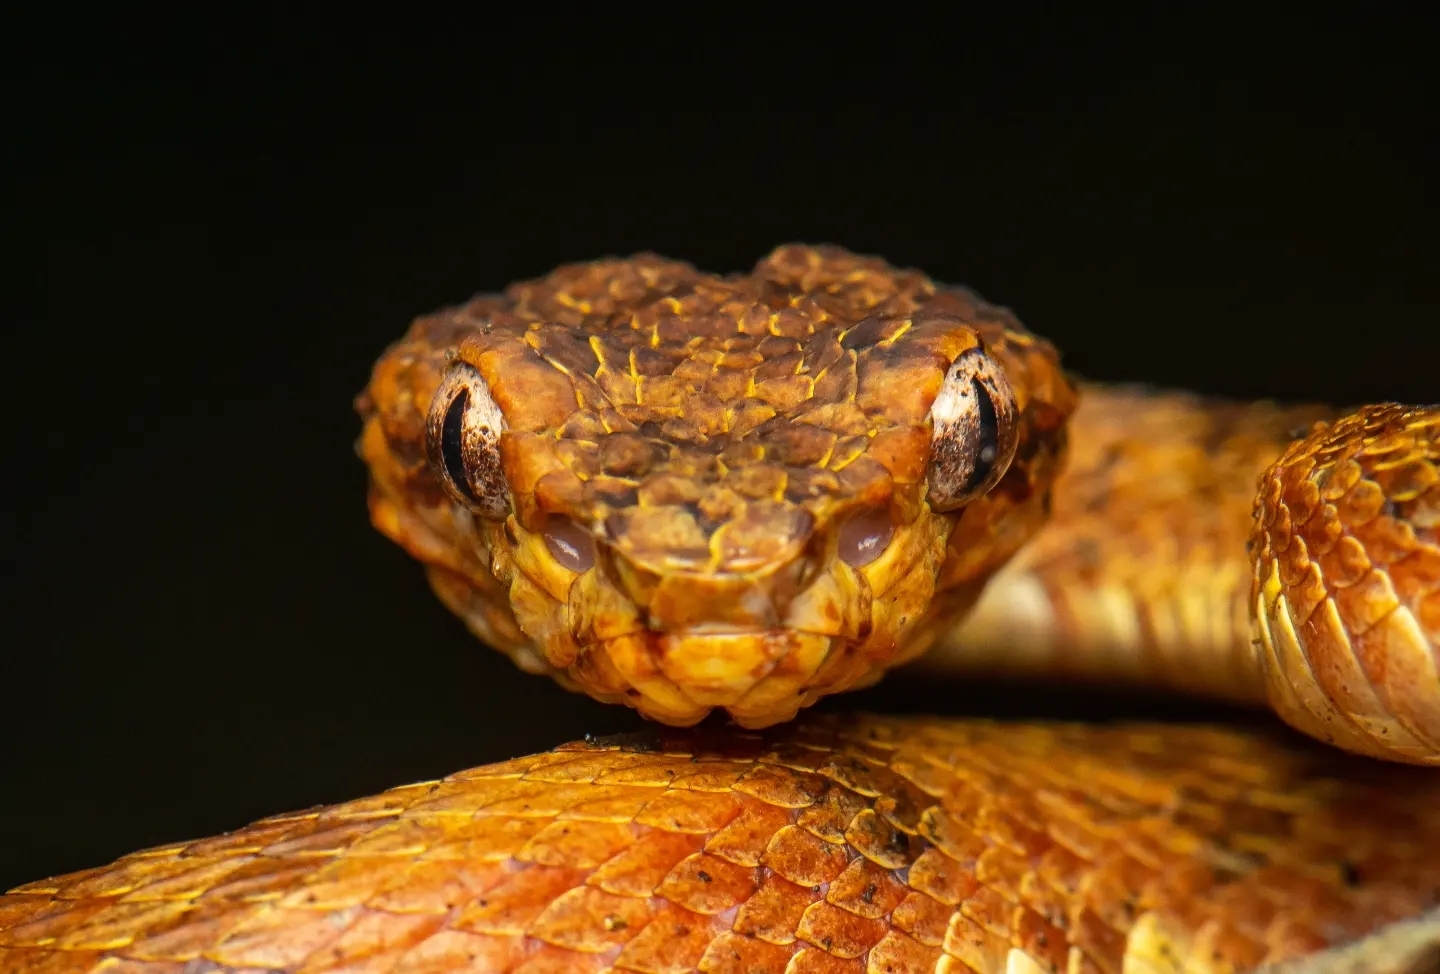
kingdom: Animalia
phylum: Chordata
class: Squamata
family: Viperidae
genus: Craspedocephalus
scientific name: Craspedocephalus anamallensis
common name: Malabarian pit viper
